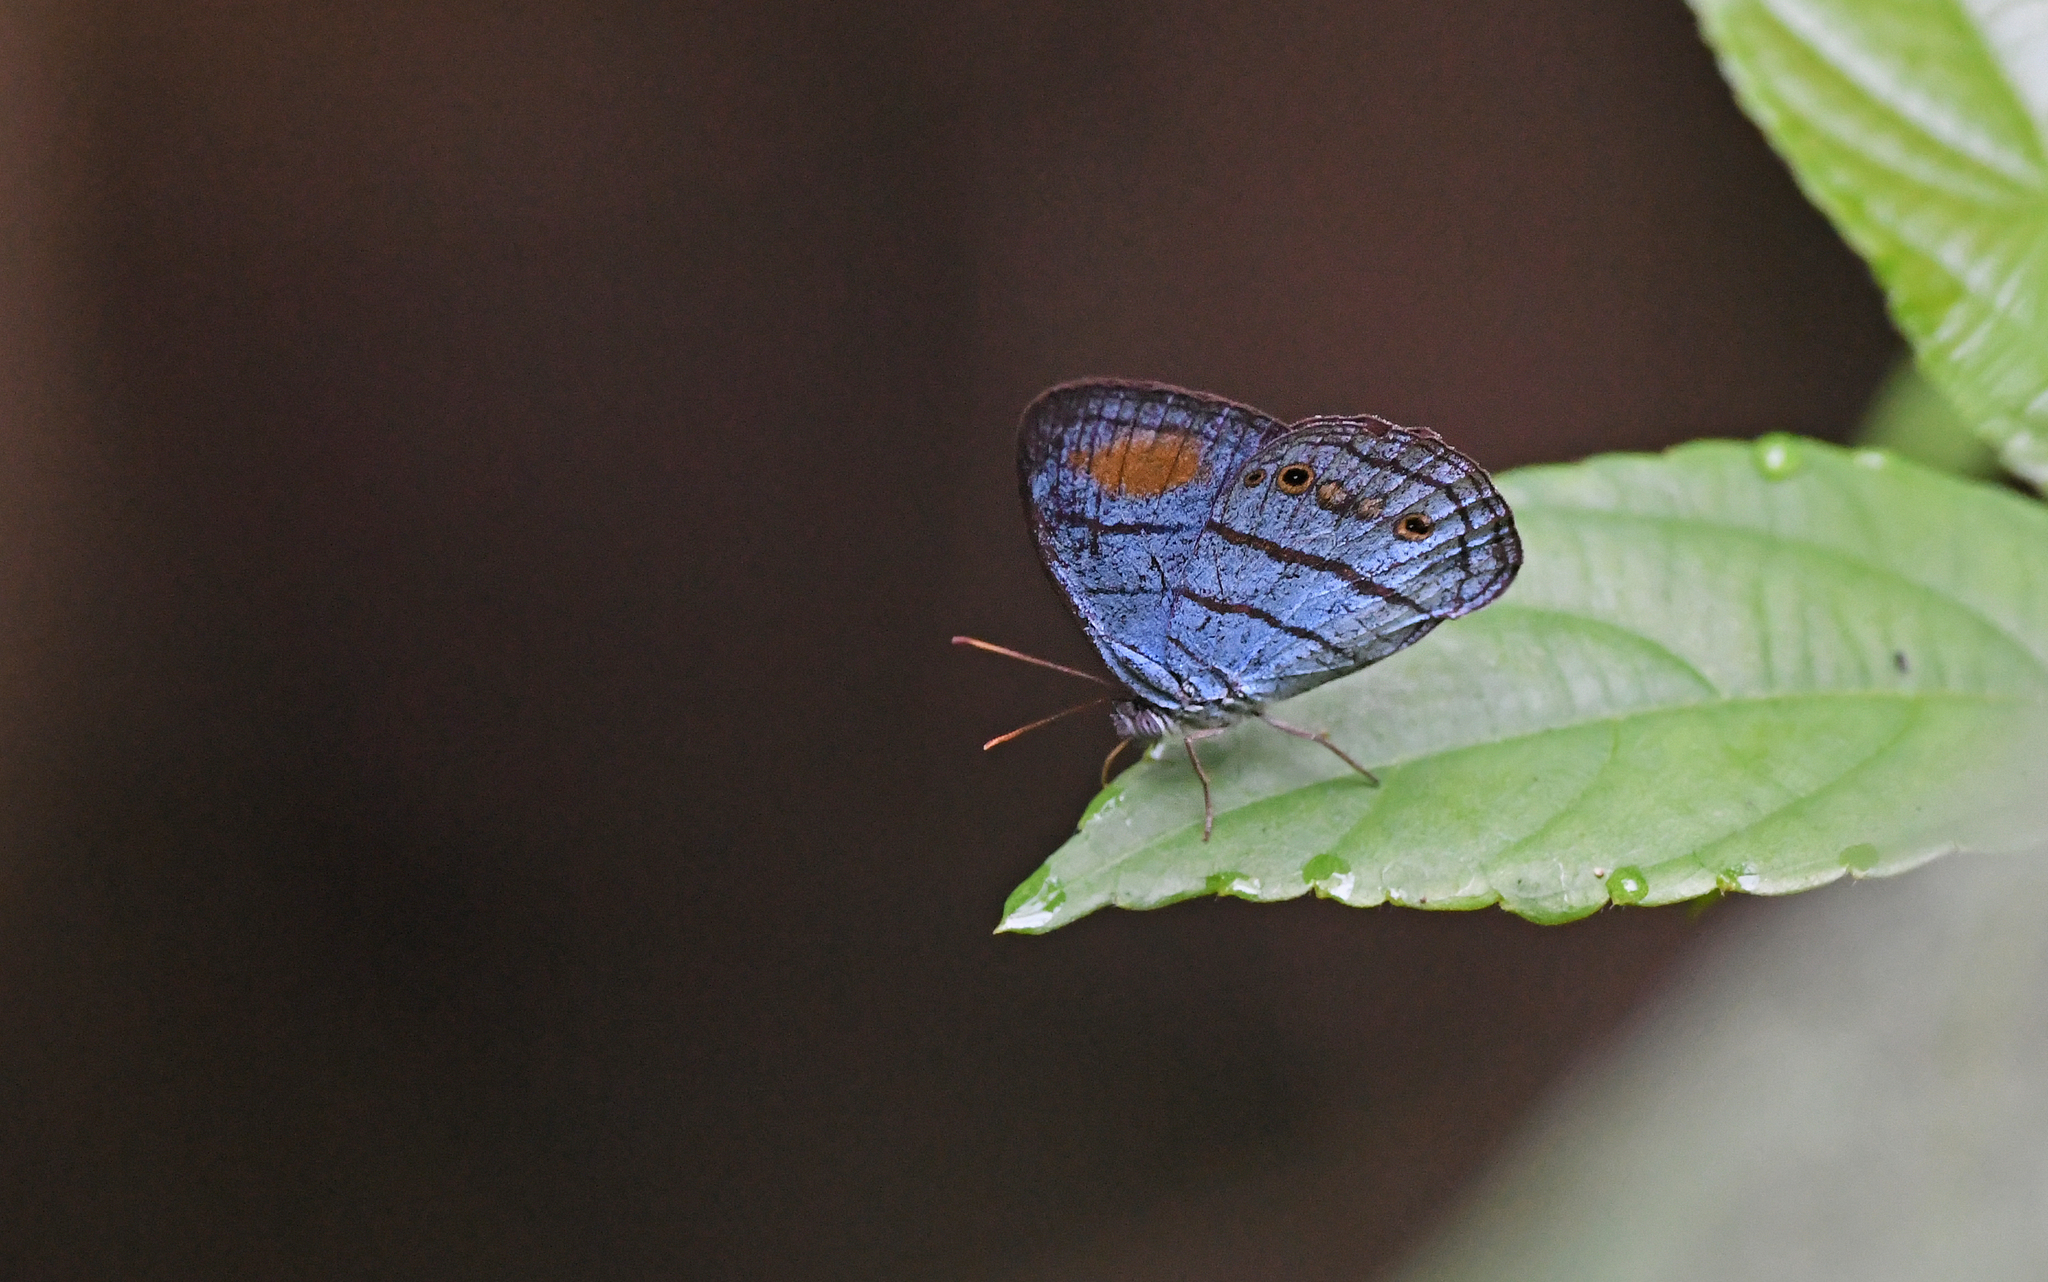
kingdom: Animalia
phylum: Arthropoda
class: Insecta
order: Lepidoptera
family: Nymphalidae
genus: Caeruleuptychia
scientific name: Caeruleuptychia helios
